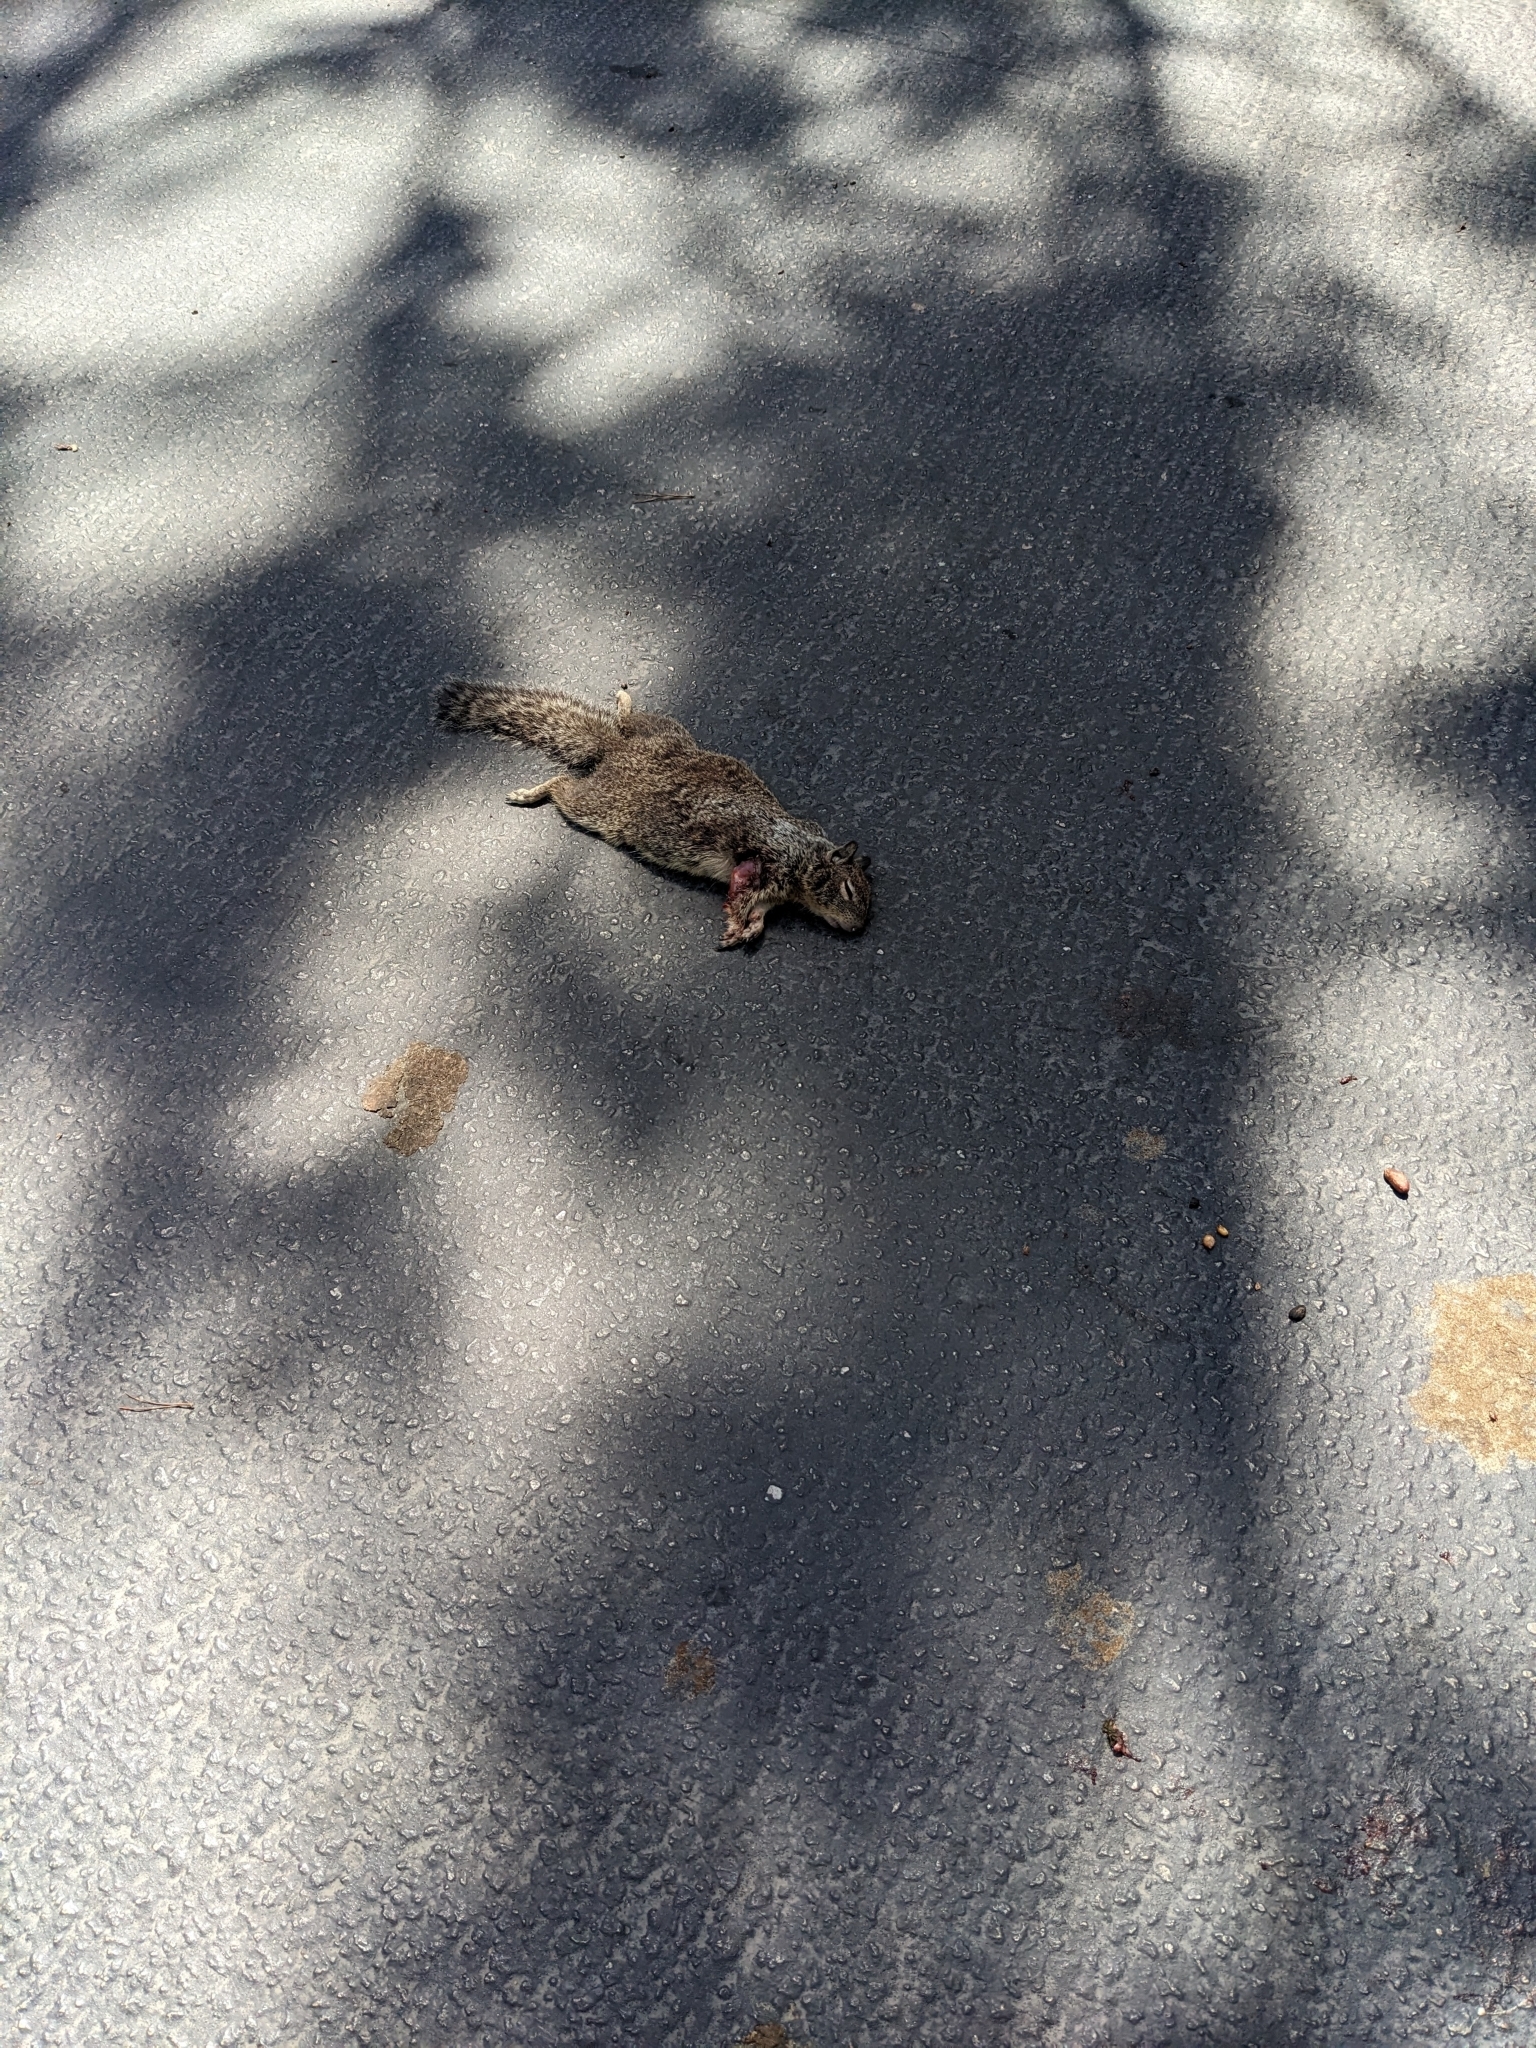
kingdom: Animalia
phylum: Chordata
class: Mammalia
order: Rodentia
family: Sciuridae
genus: Otospermophilus
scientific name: Otospermophilus beecheyi
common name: California ground squirrel
